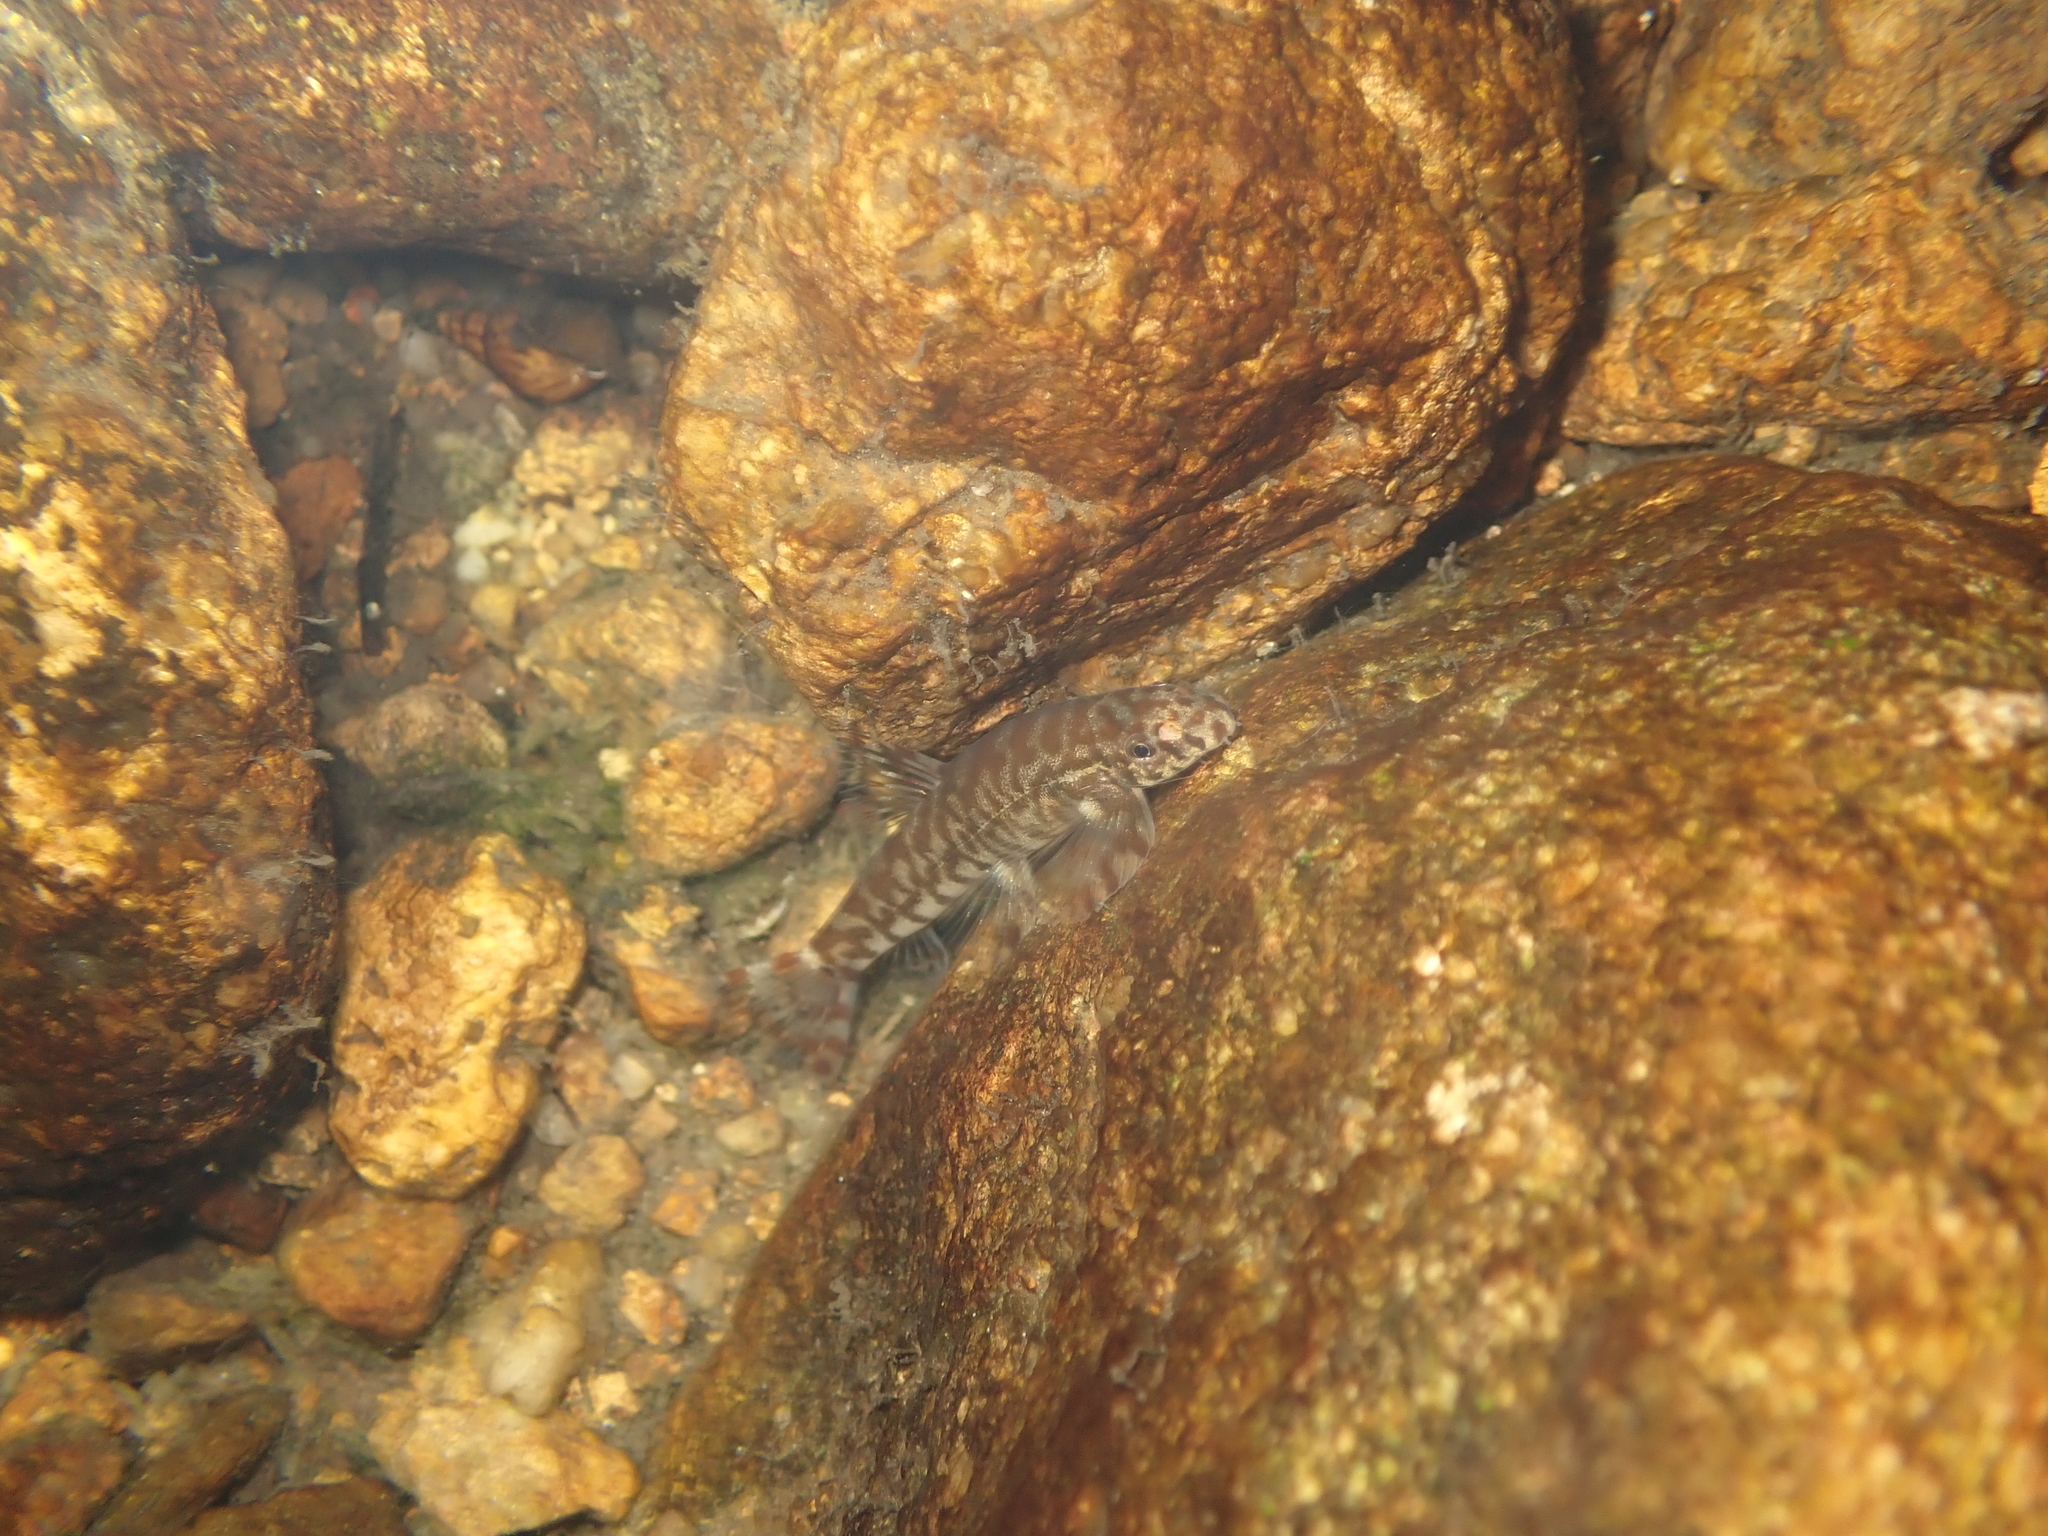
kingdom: Animalia
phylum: Chordata
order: Cypriniformes
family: Balitoridae
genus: Liniparhomaloptera
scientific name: Liniparhomaloptera disparis
